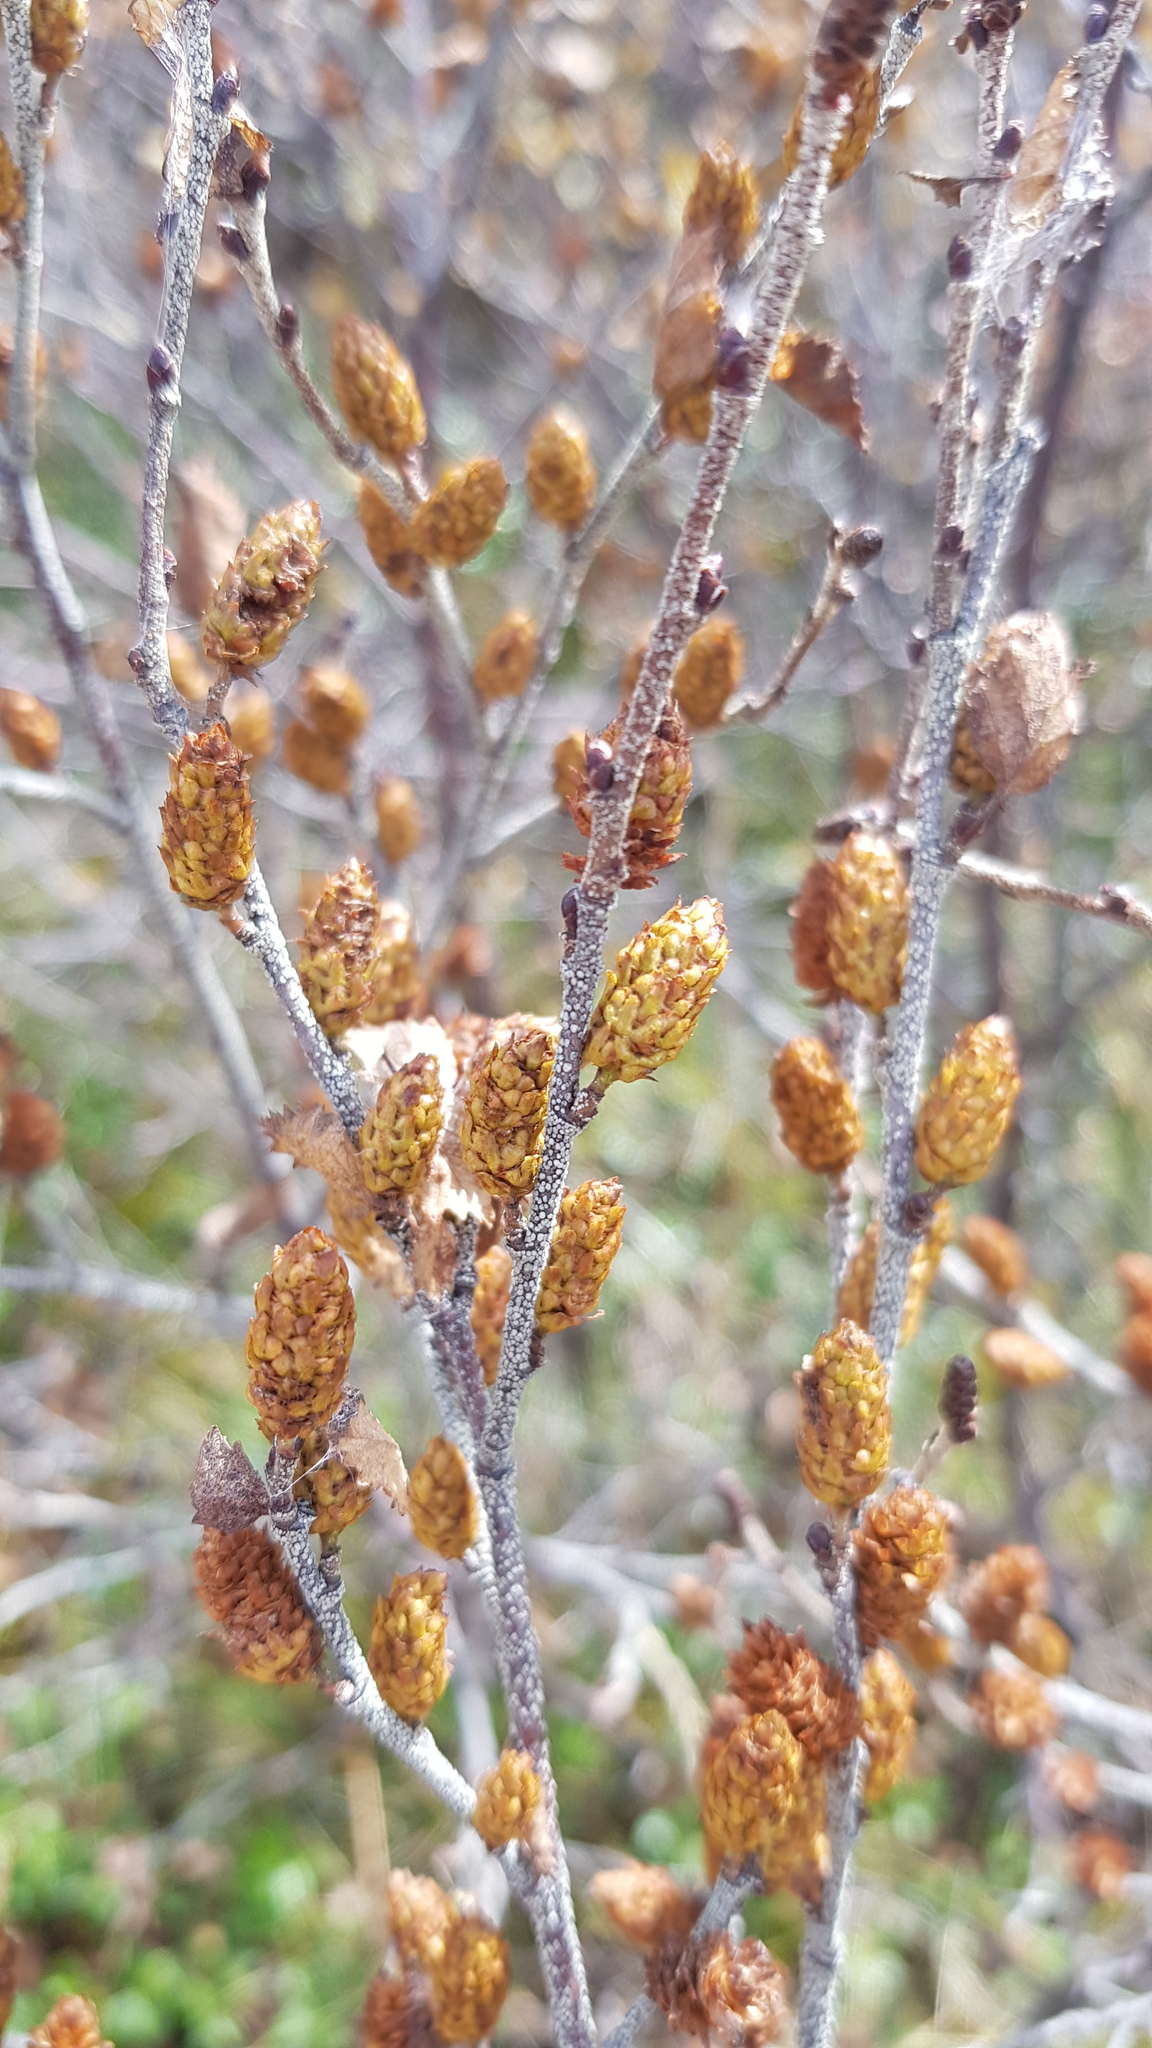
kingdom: Plantae
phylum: Tracheophyta
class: Magnoliopsida
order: Fagales
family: Betulaceae
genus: Betula
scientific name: Betula humilis
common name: Shrubby birch
